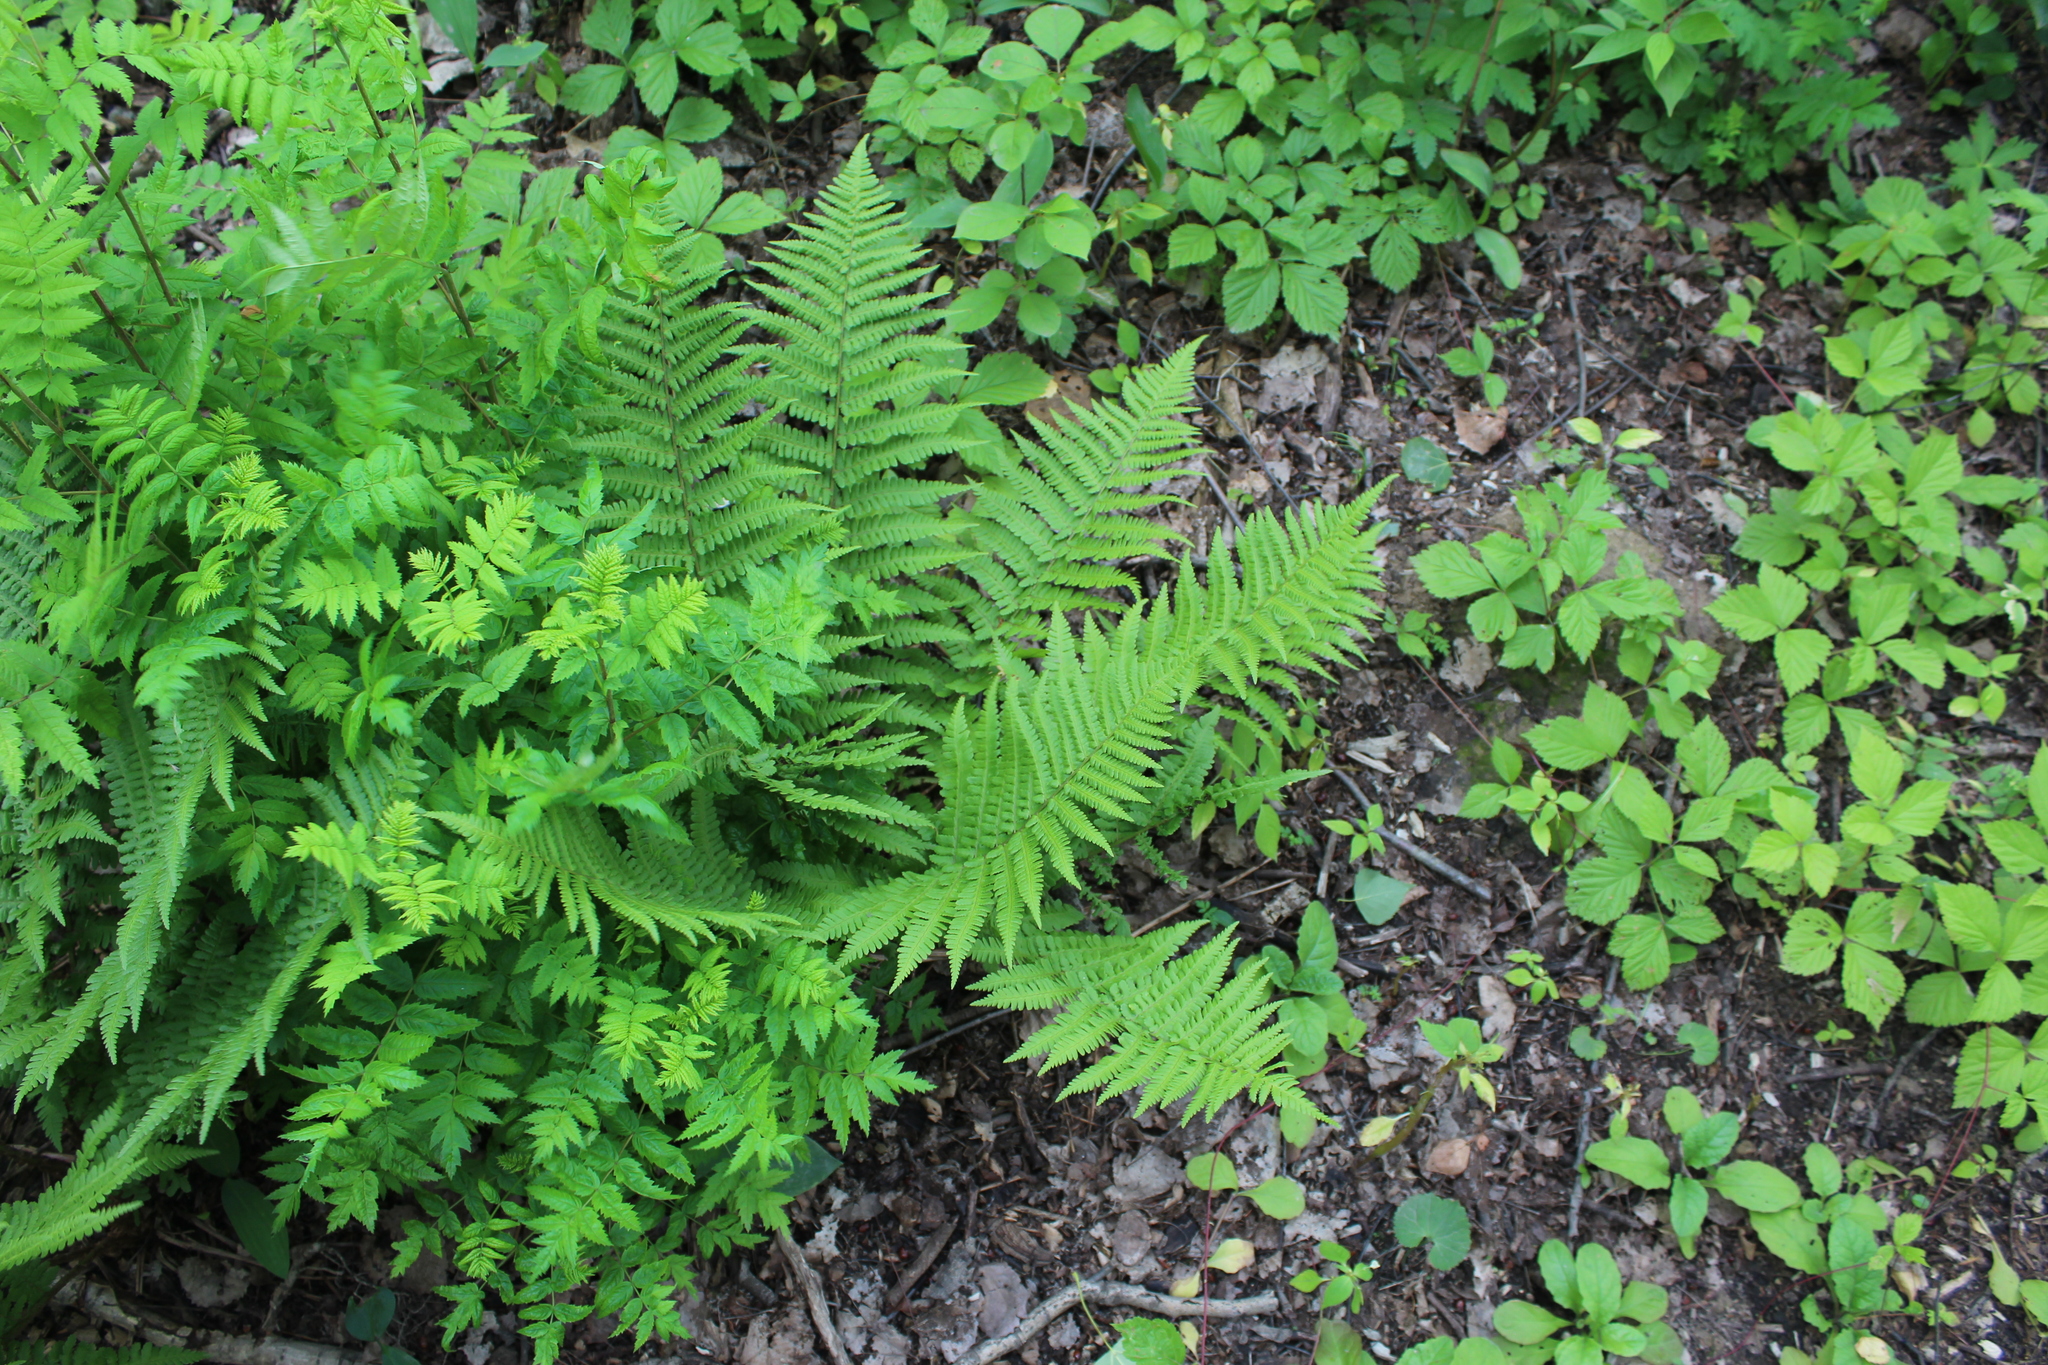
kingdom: Plantae
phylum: Tracheophyta
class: Polypodiopsida
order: Polypodiales
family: Dryopteridaceae
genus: Dryopteris
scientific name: Dryopteris filix-mas
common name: Male fern
